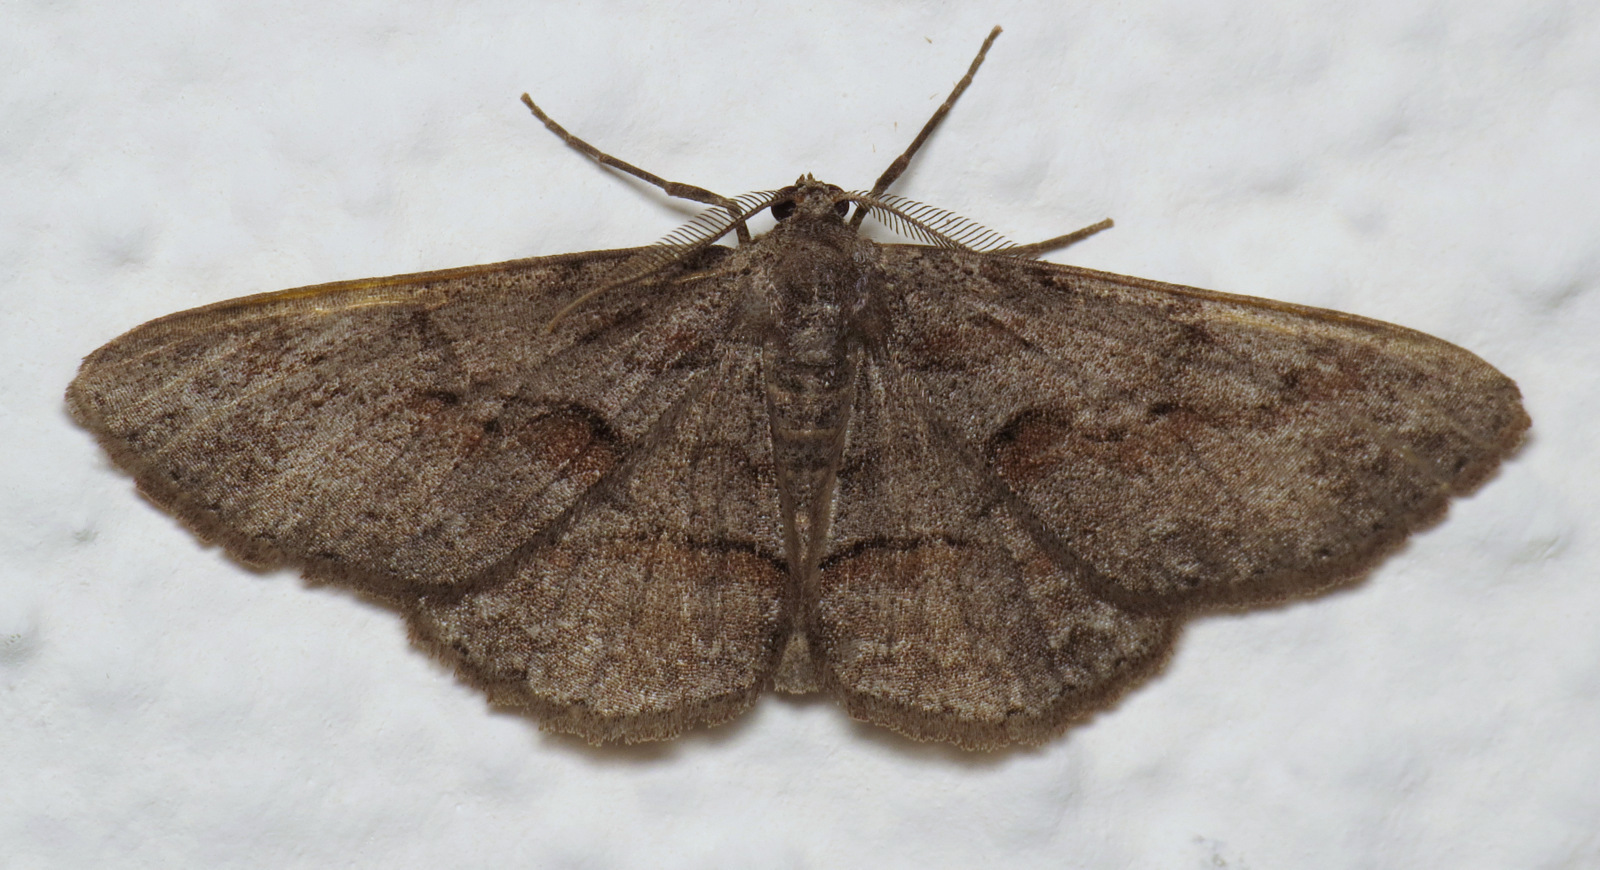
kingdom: Animalia
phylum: Arthropoda
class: Insecta
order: Lepidoptera
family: Geometridae
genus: Iridopsis
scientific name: Iridopsis vellivolata
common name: Large purplish gray
